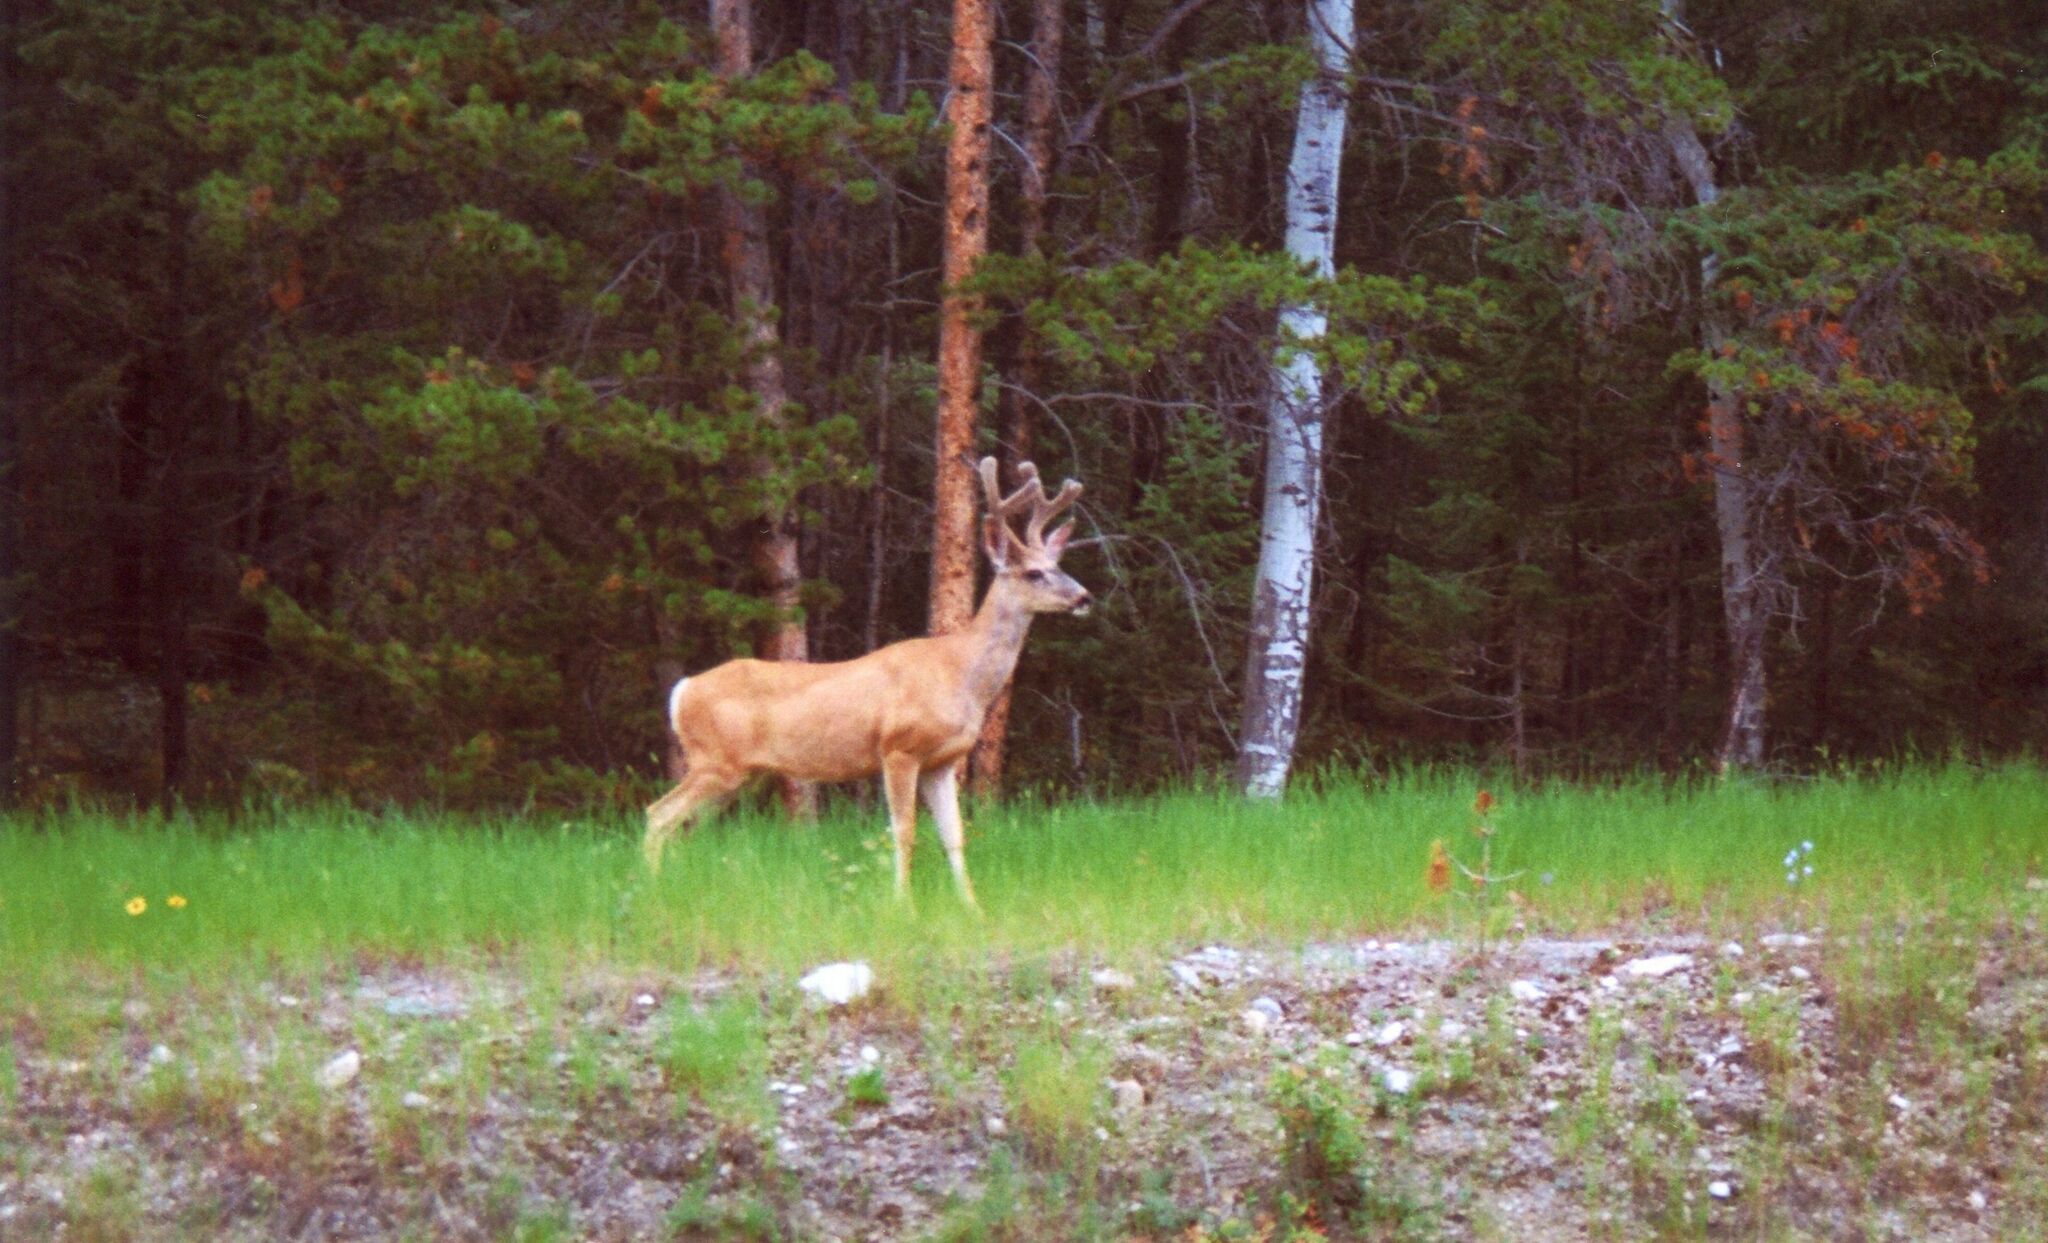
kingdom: Animalia
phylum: Chordata
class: Mammalia
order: Artiodactyla
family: Cervidae
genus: Odocoileus
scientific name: Odocoileus hemionus
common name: Mule deer
